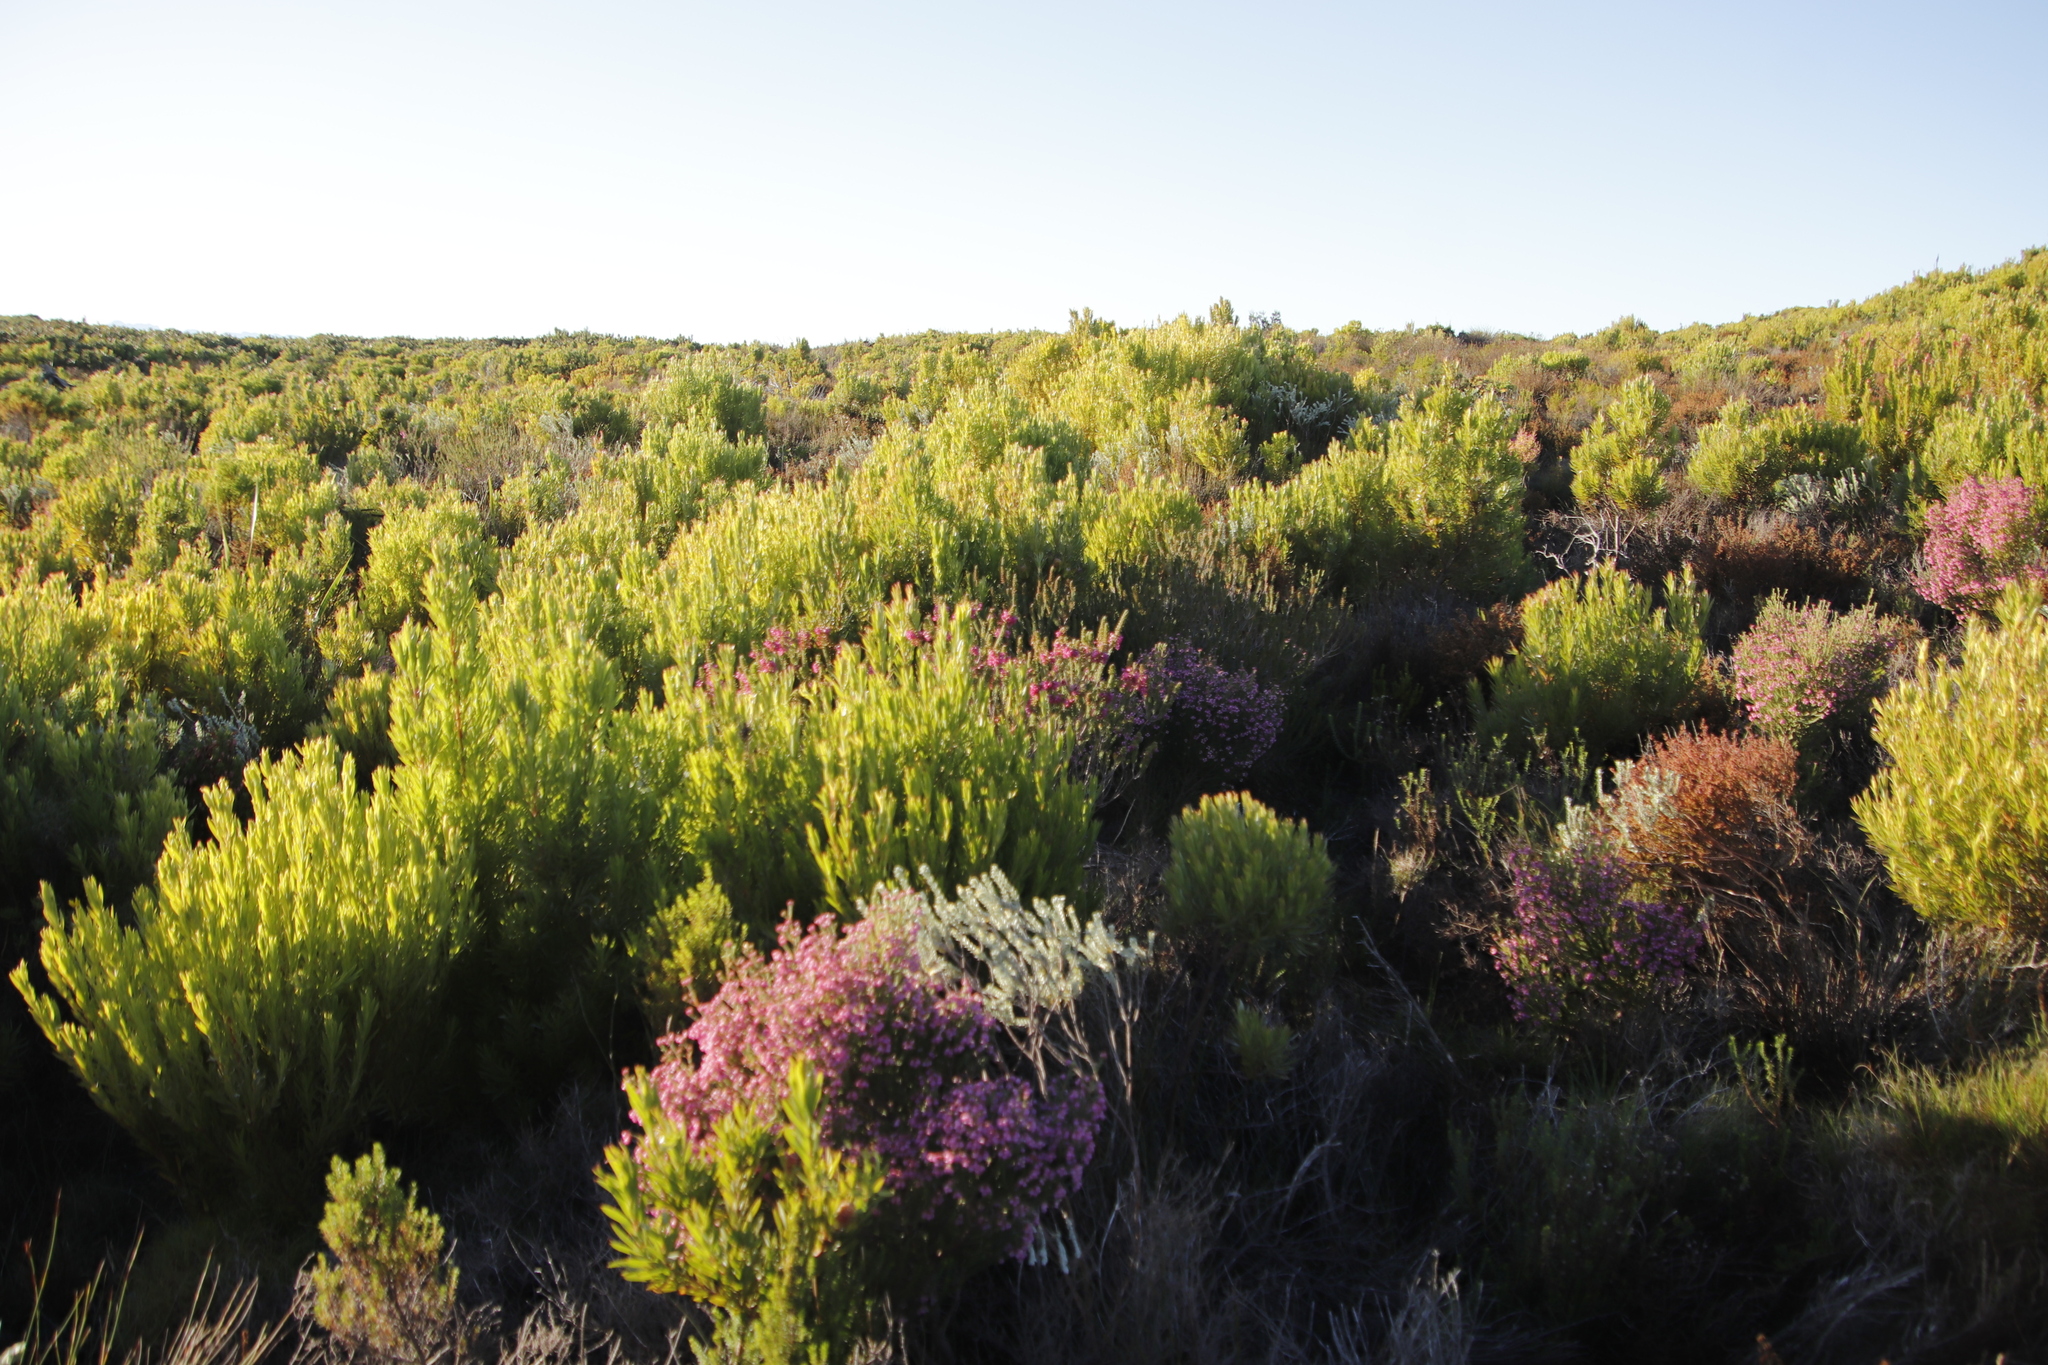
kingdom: Plantae
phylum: Tracheophyta
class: Magnoliopsida
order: Ericales
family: Ericaceae
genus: Erica
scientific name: Erica abietina
